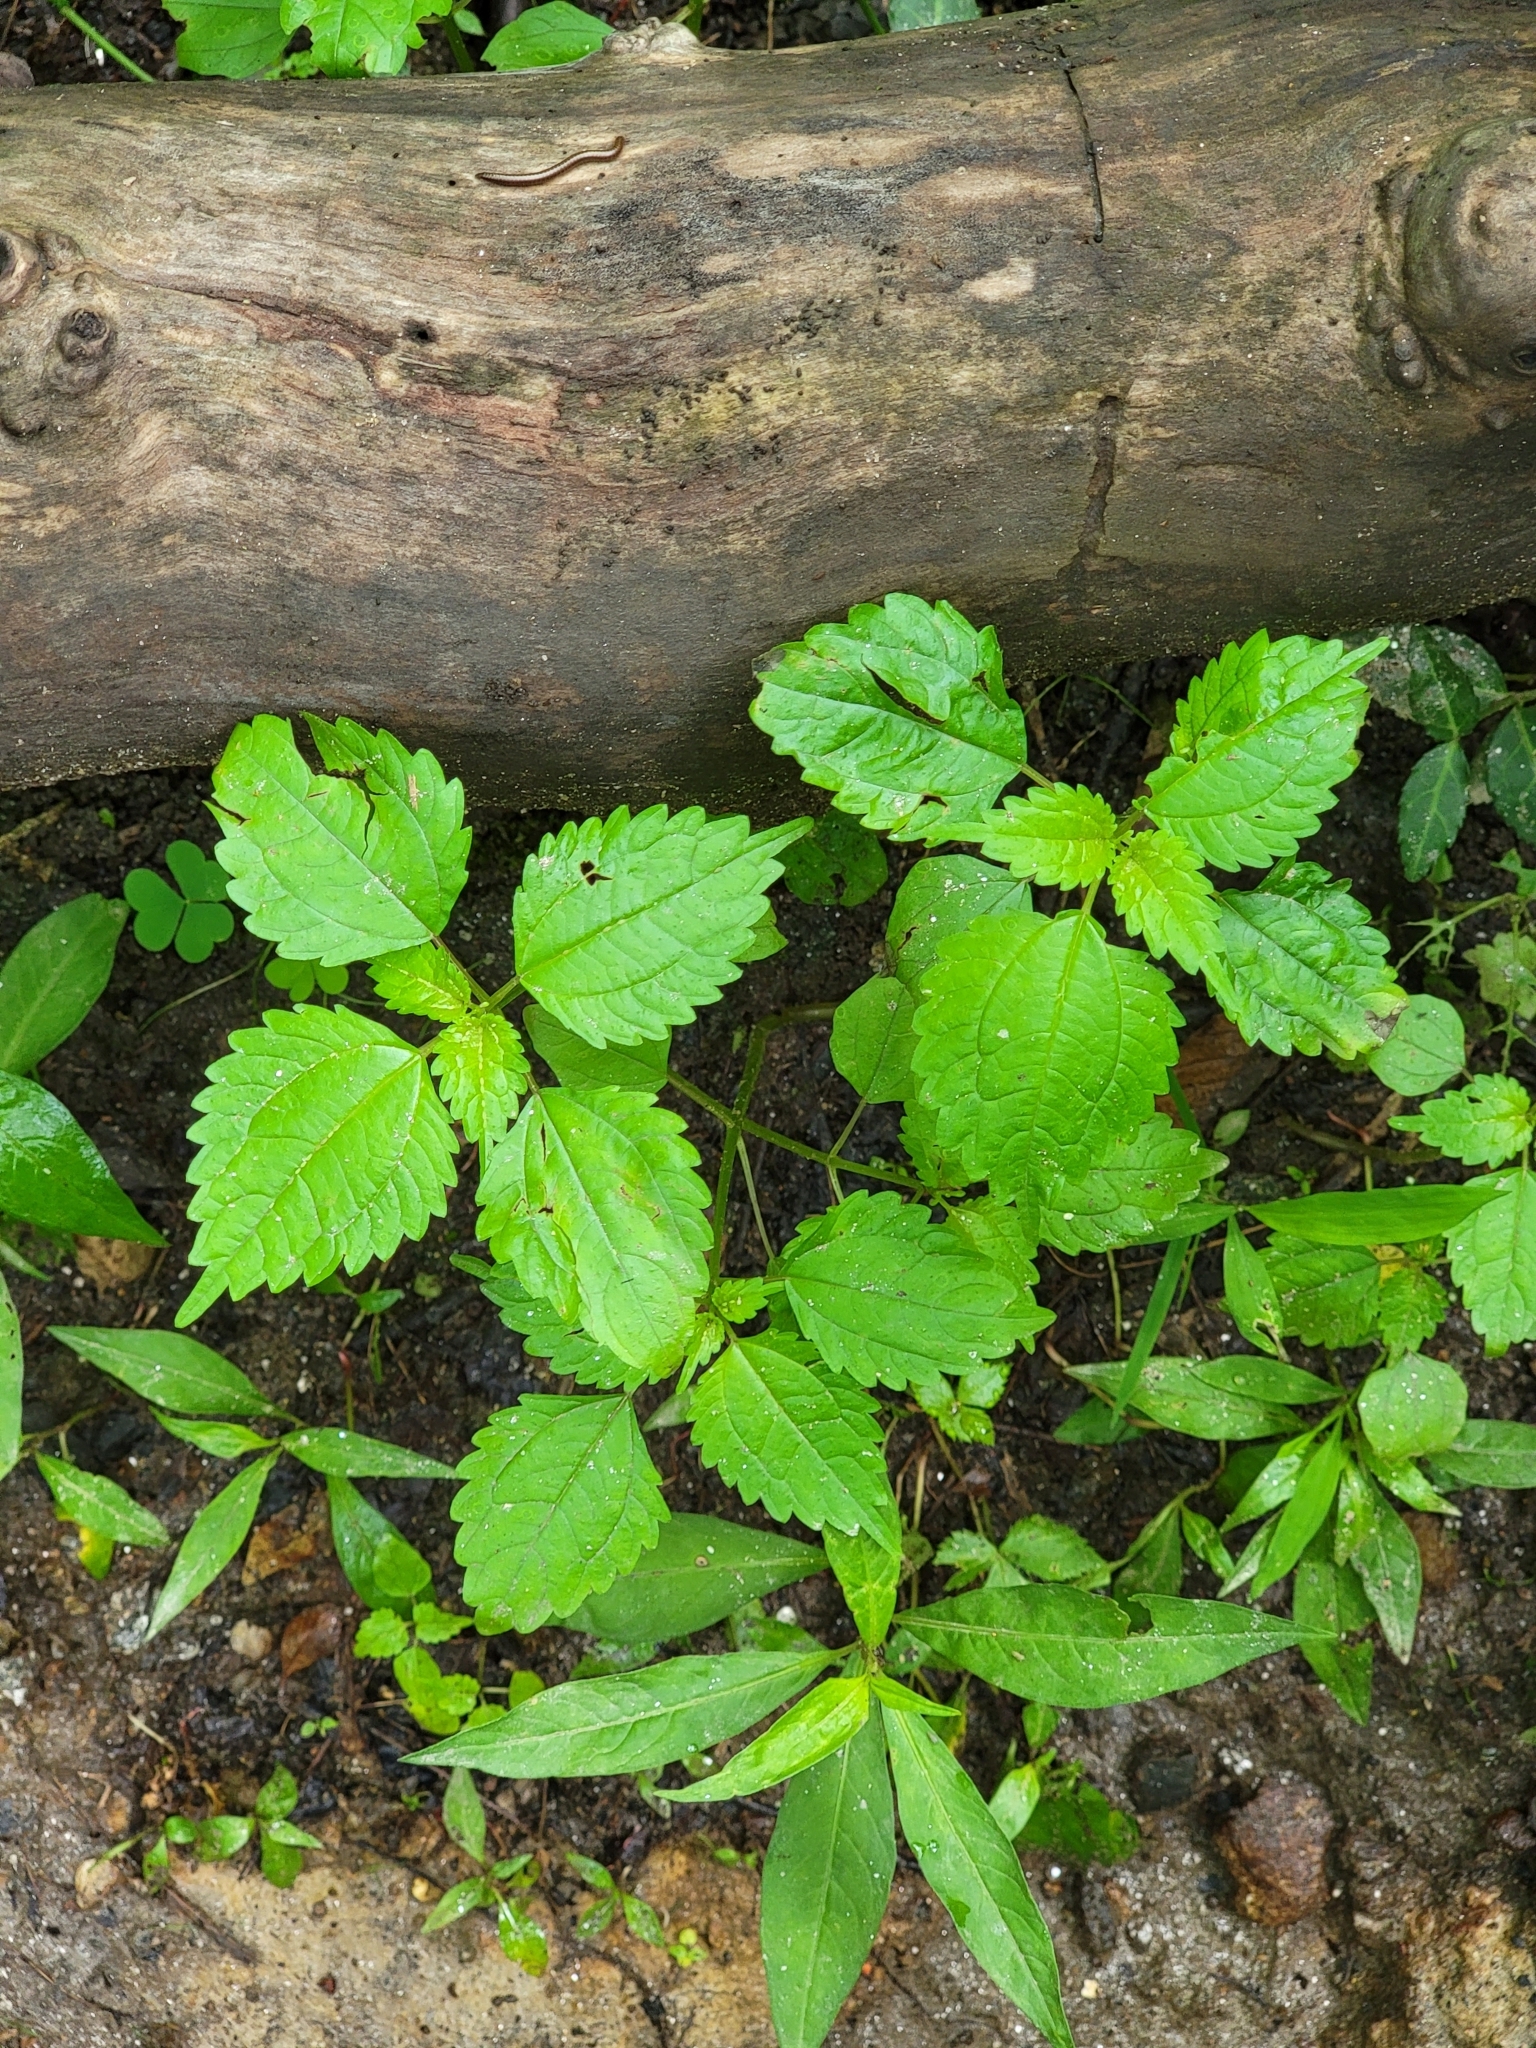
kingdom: Plantae
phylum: Tracheophyta
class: Magnoliopsida
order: Rosales
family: Urticaceae
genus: Pilea
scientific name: Pilea pumila
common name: Clearweed
